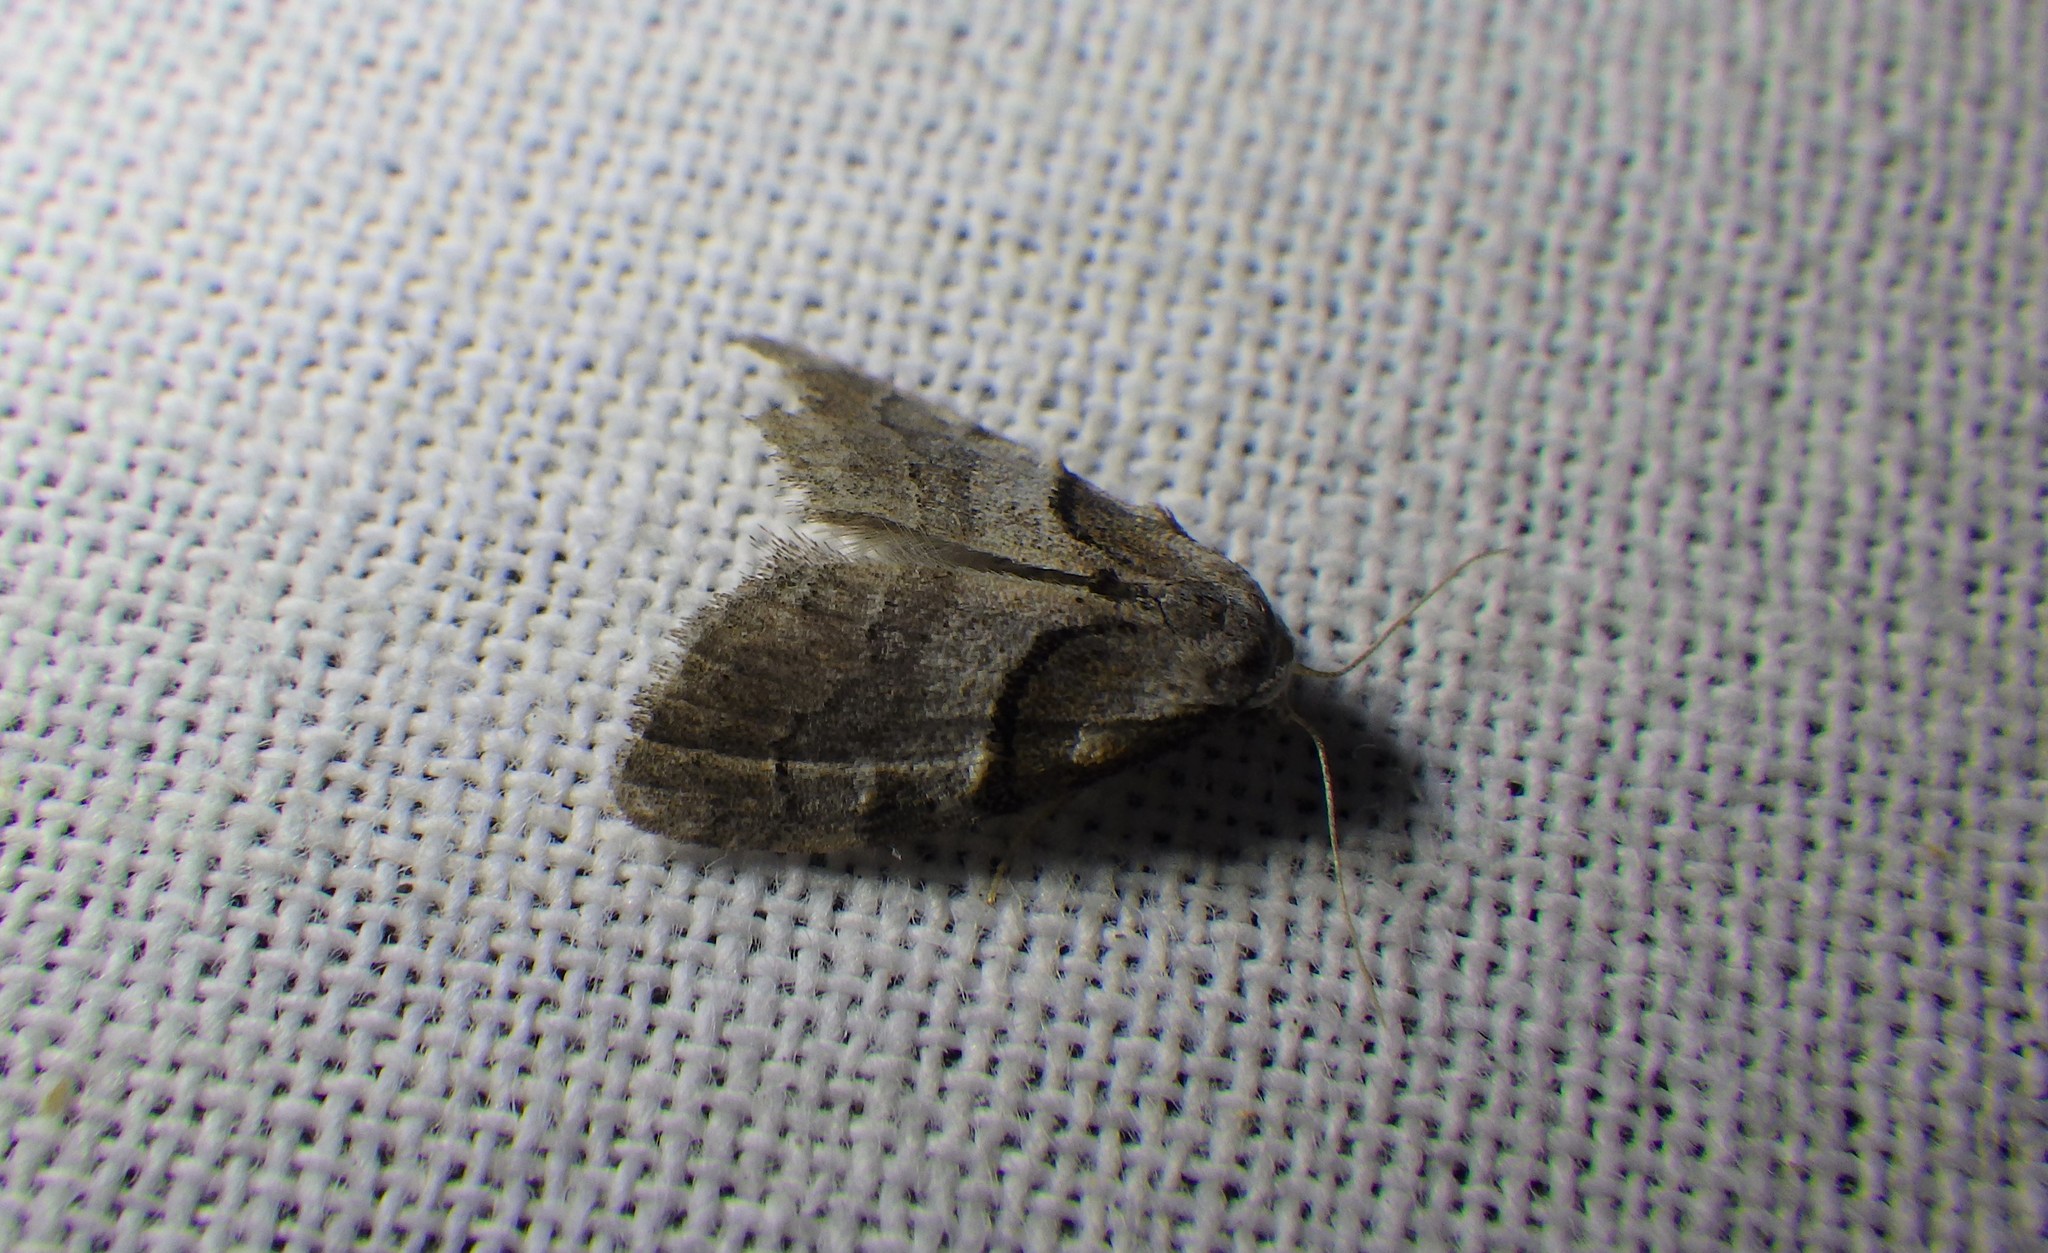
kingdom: Animalia
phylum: Arthropoda
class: Insecta
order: Lepidoptera
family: Nolidae
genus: Nola
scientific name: Nola cucullatella
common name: Short-cloaked moth
